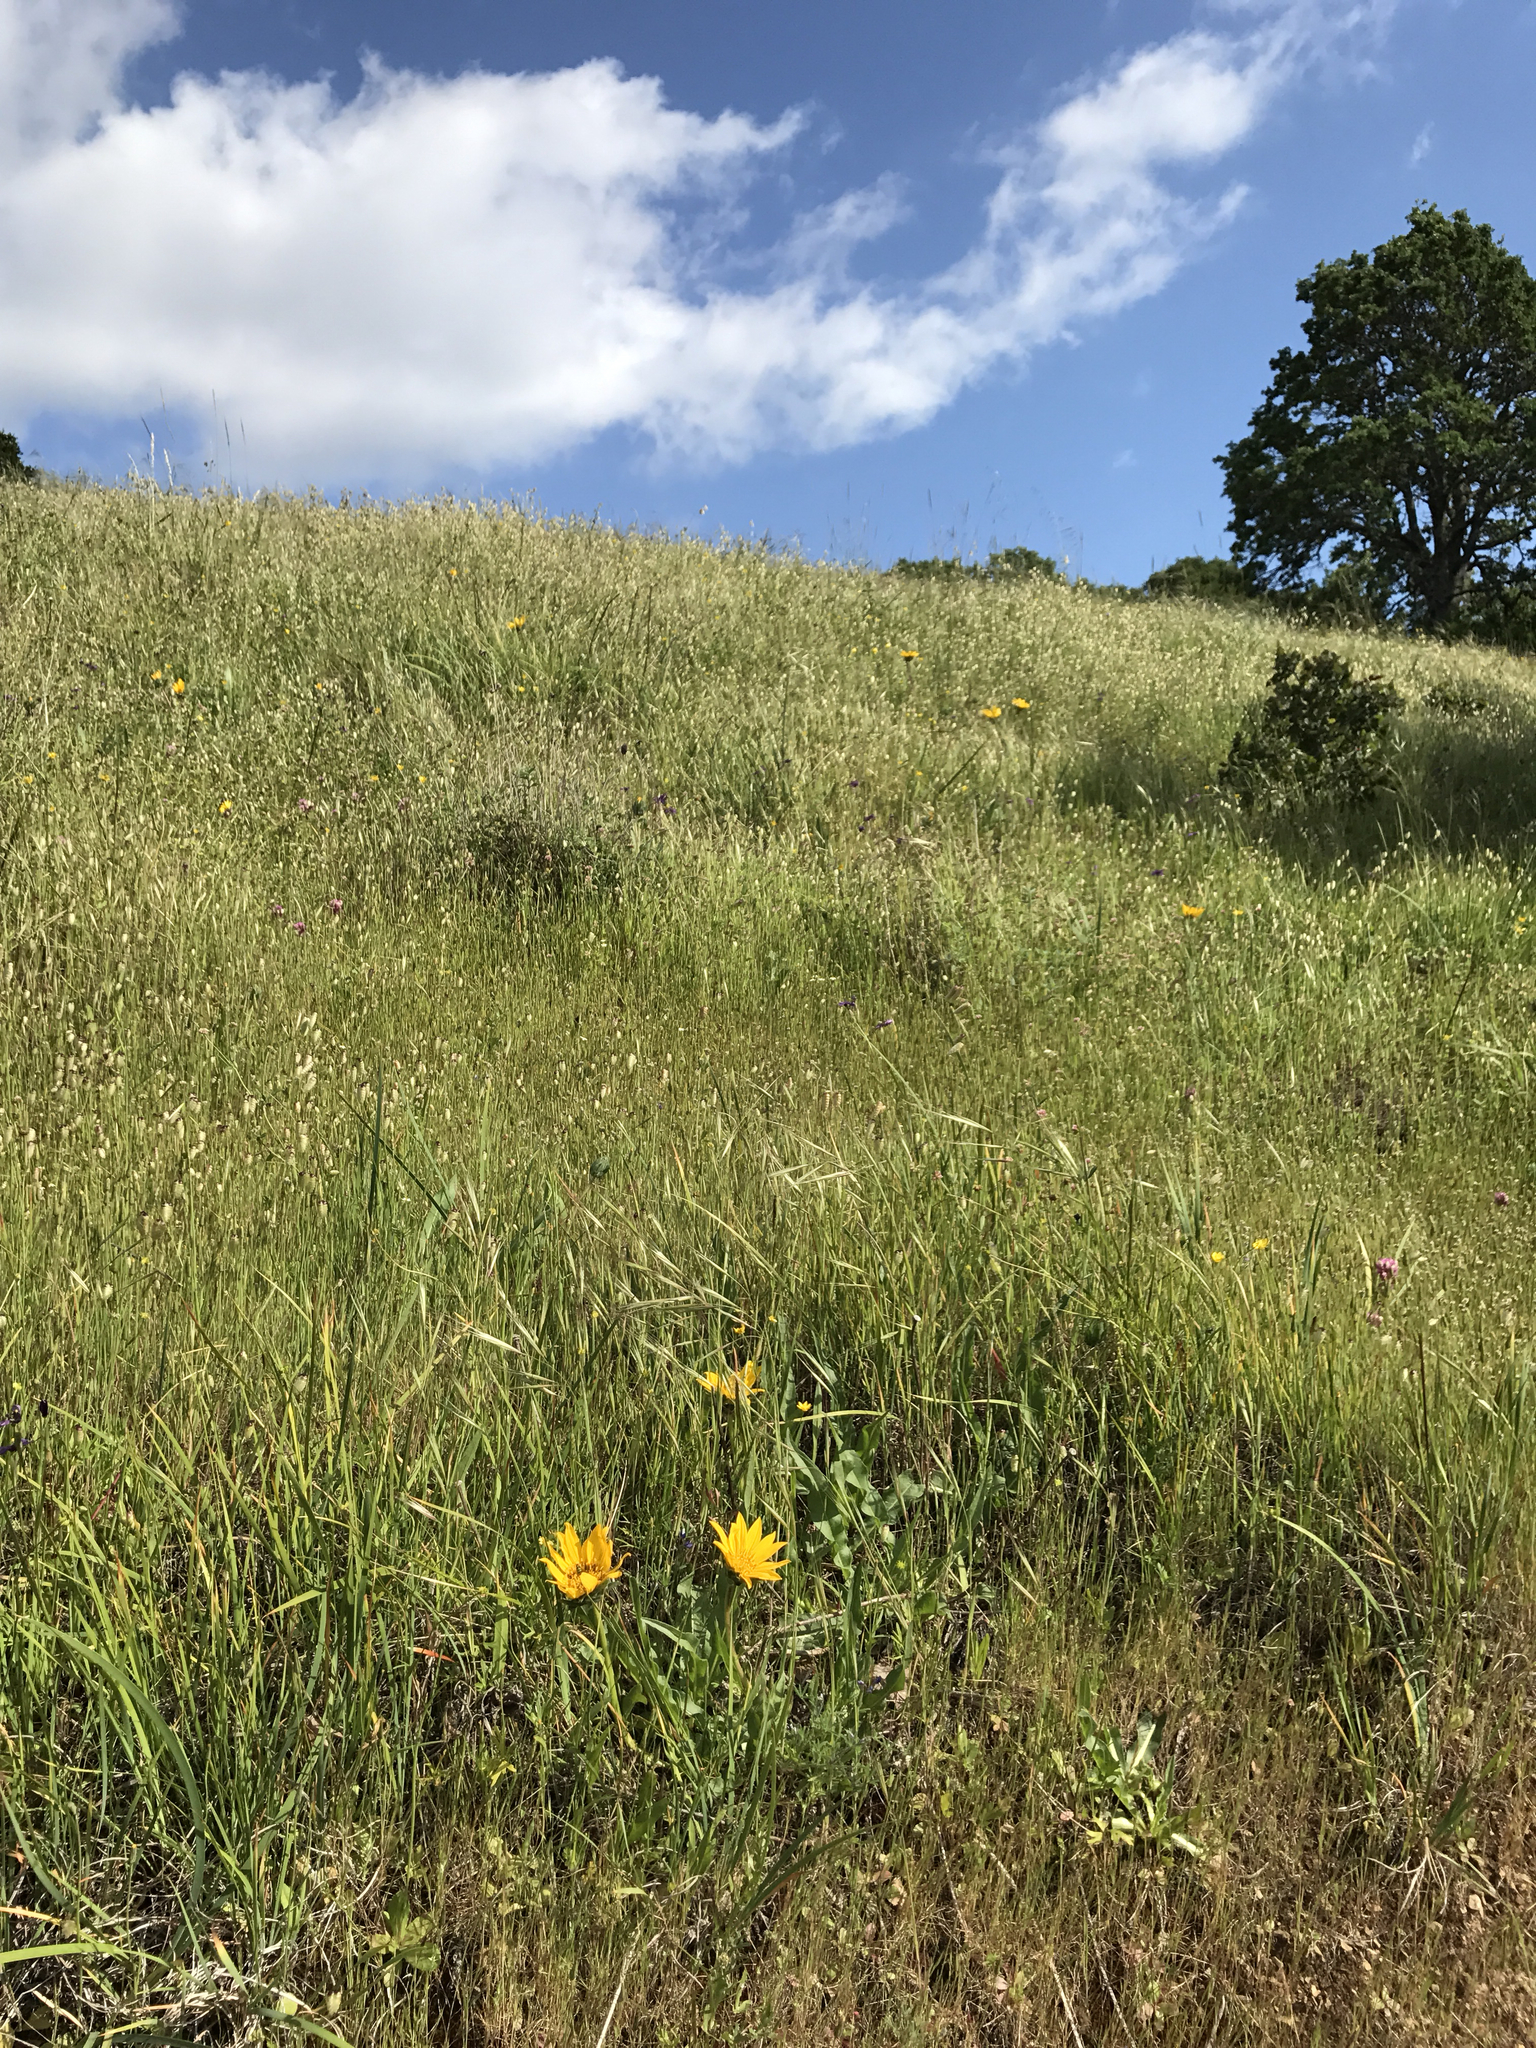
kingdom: Plantae
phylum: Tracheophyta
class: Magnoliopsida
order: Asterales
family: Asteraceae
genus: Wyethia
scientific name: Wyethia angustifolia
